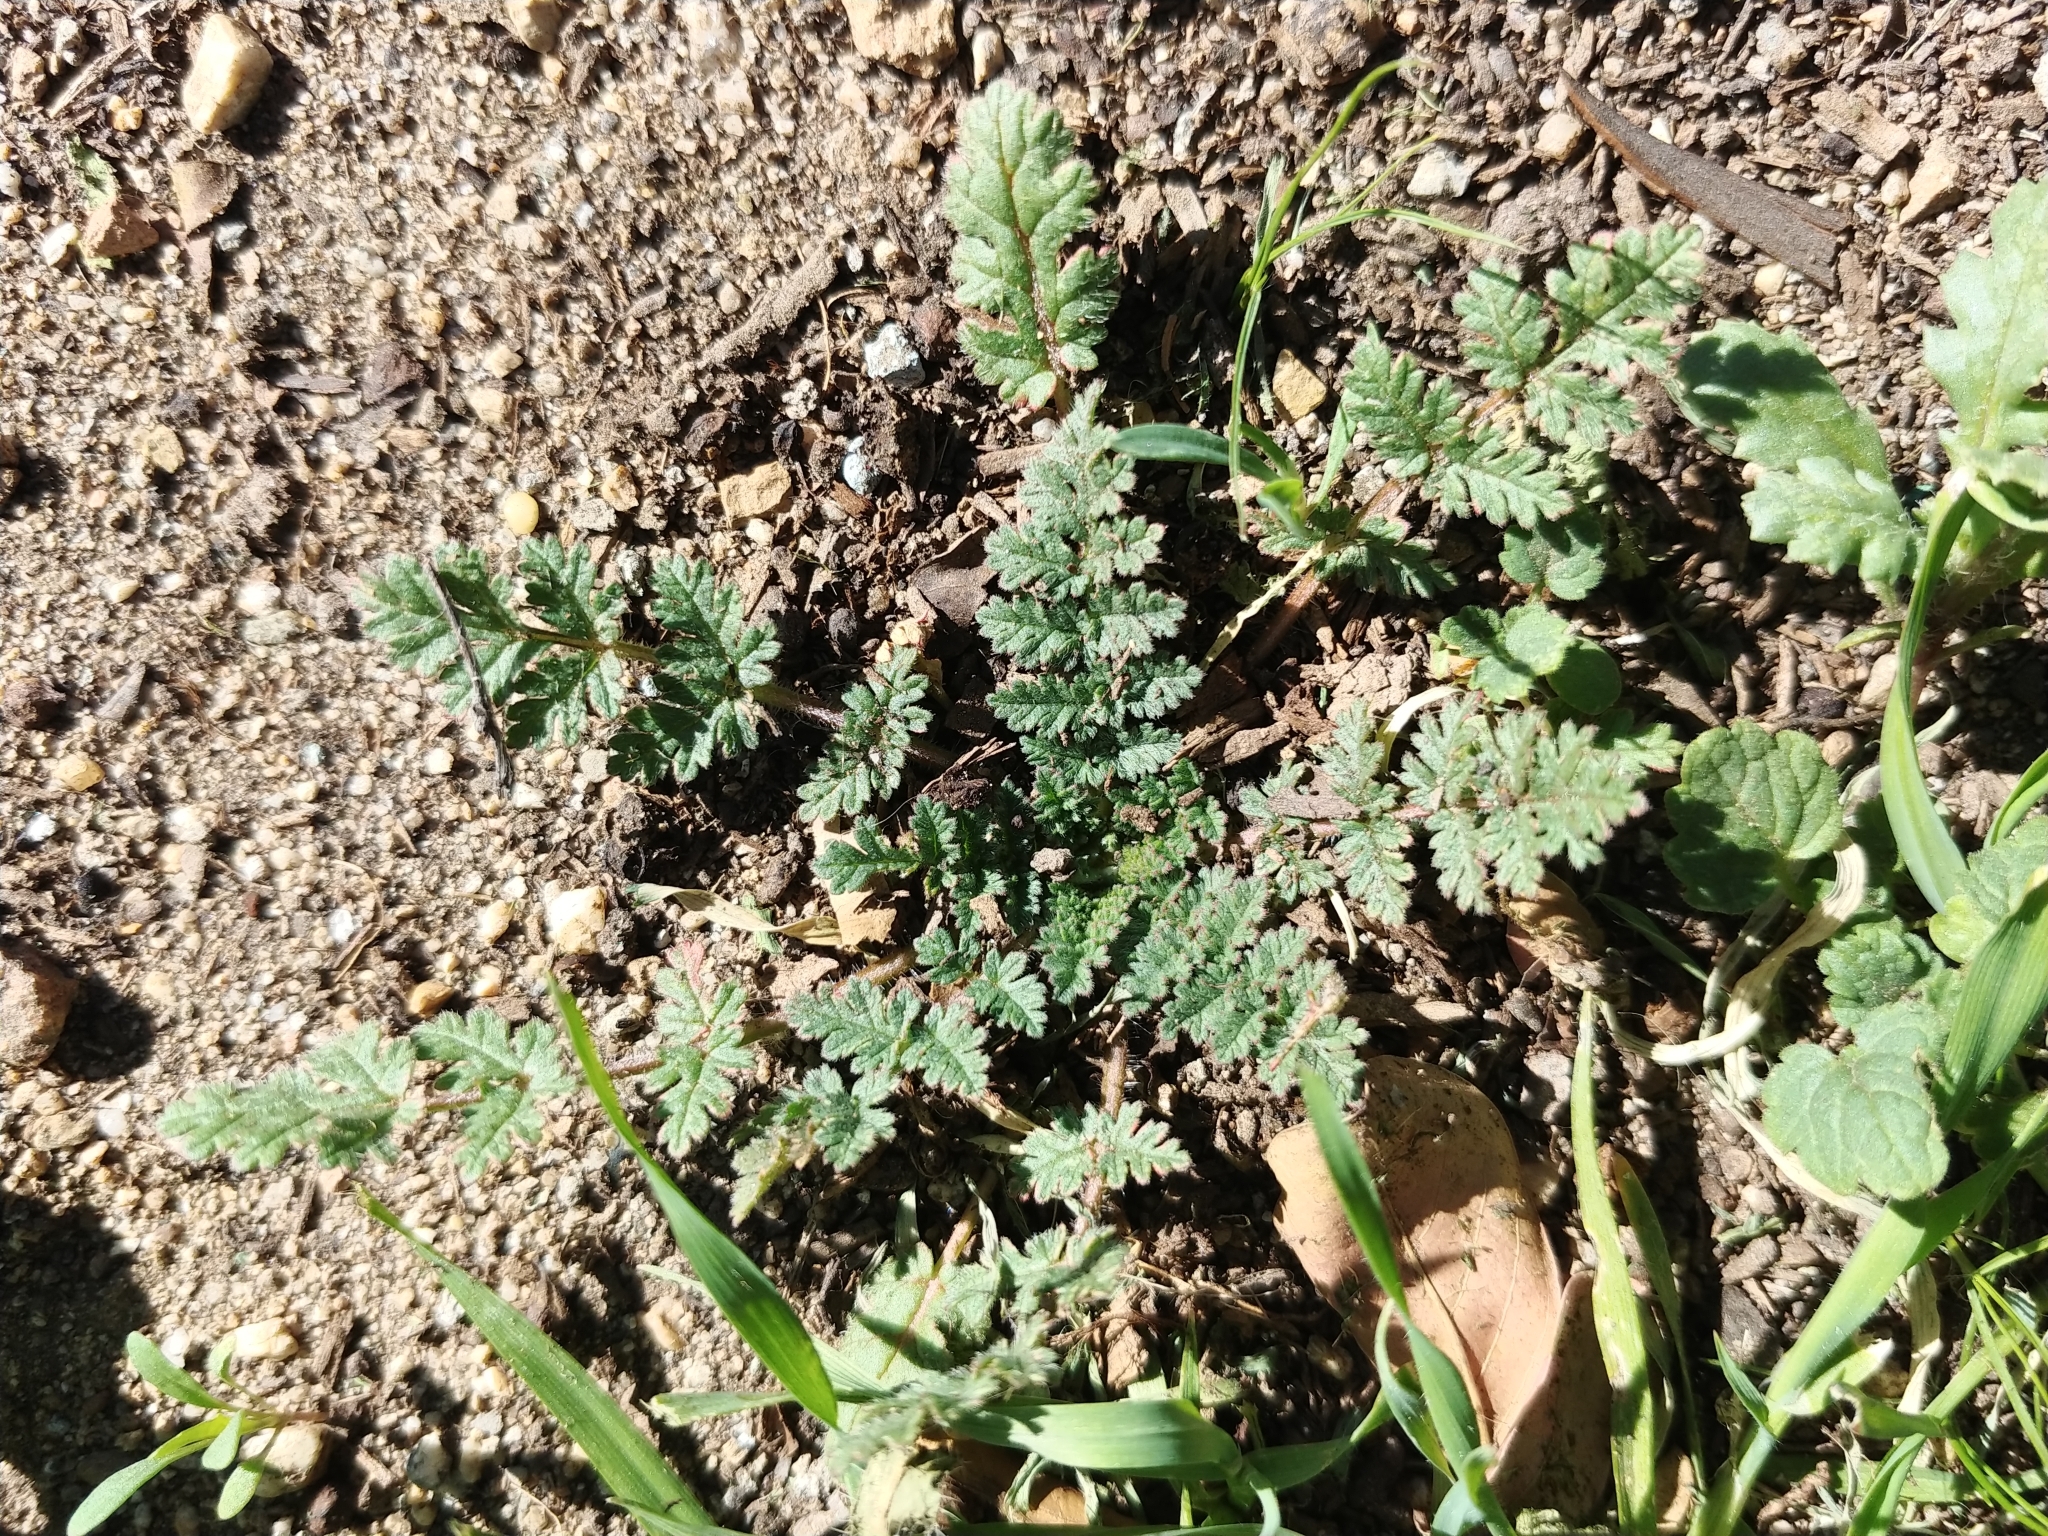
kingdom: Plantae
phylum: Tracheophyta
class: Magnoliopsida
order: Geraniales
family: Geraniaceae
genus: Erodium
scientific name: Erodium cicutarium
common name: Common stork's-bill
